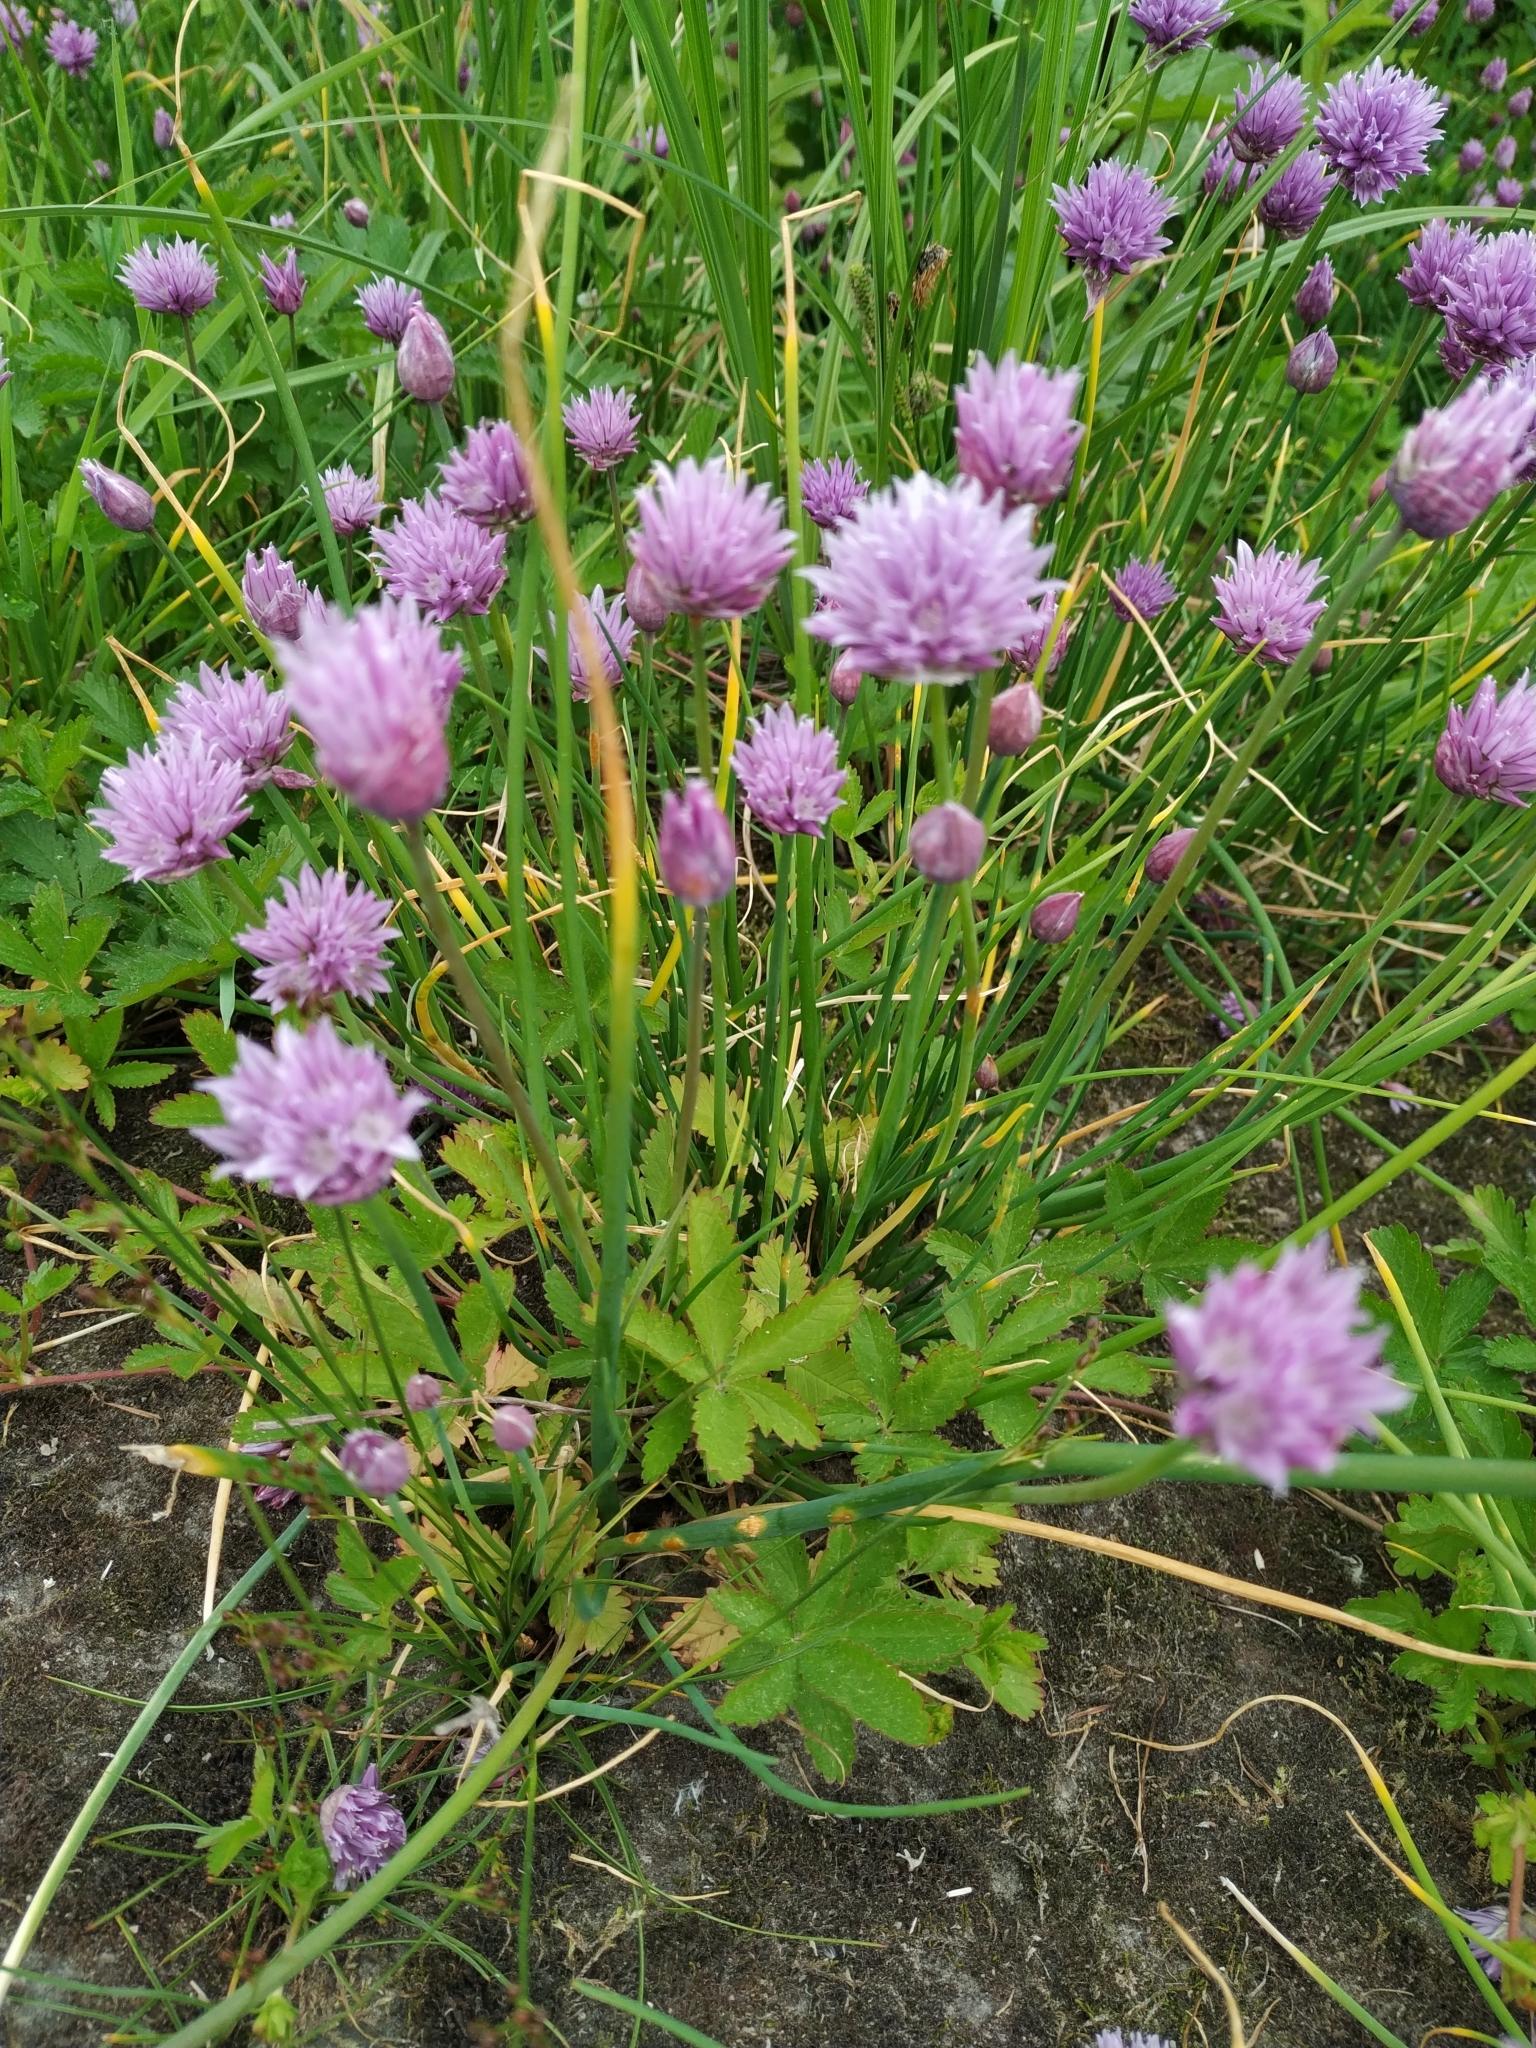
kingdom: Plantae
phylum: Tracheophyta
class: Liliopsida
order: Asparagales
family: Amaryllidaceae
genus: Allium
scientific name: Allium schoenoprasum
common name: Chives
